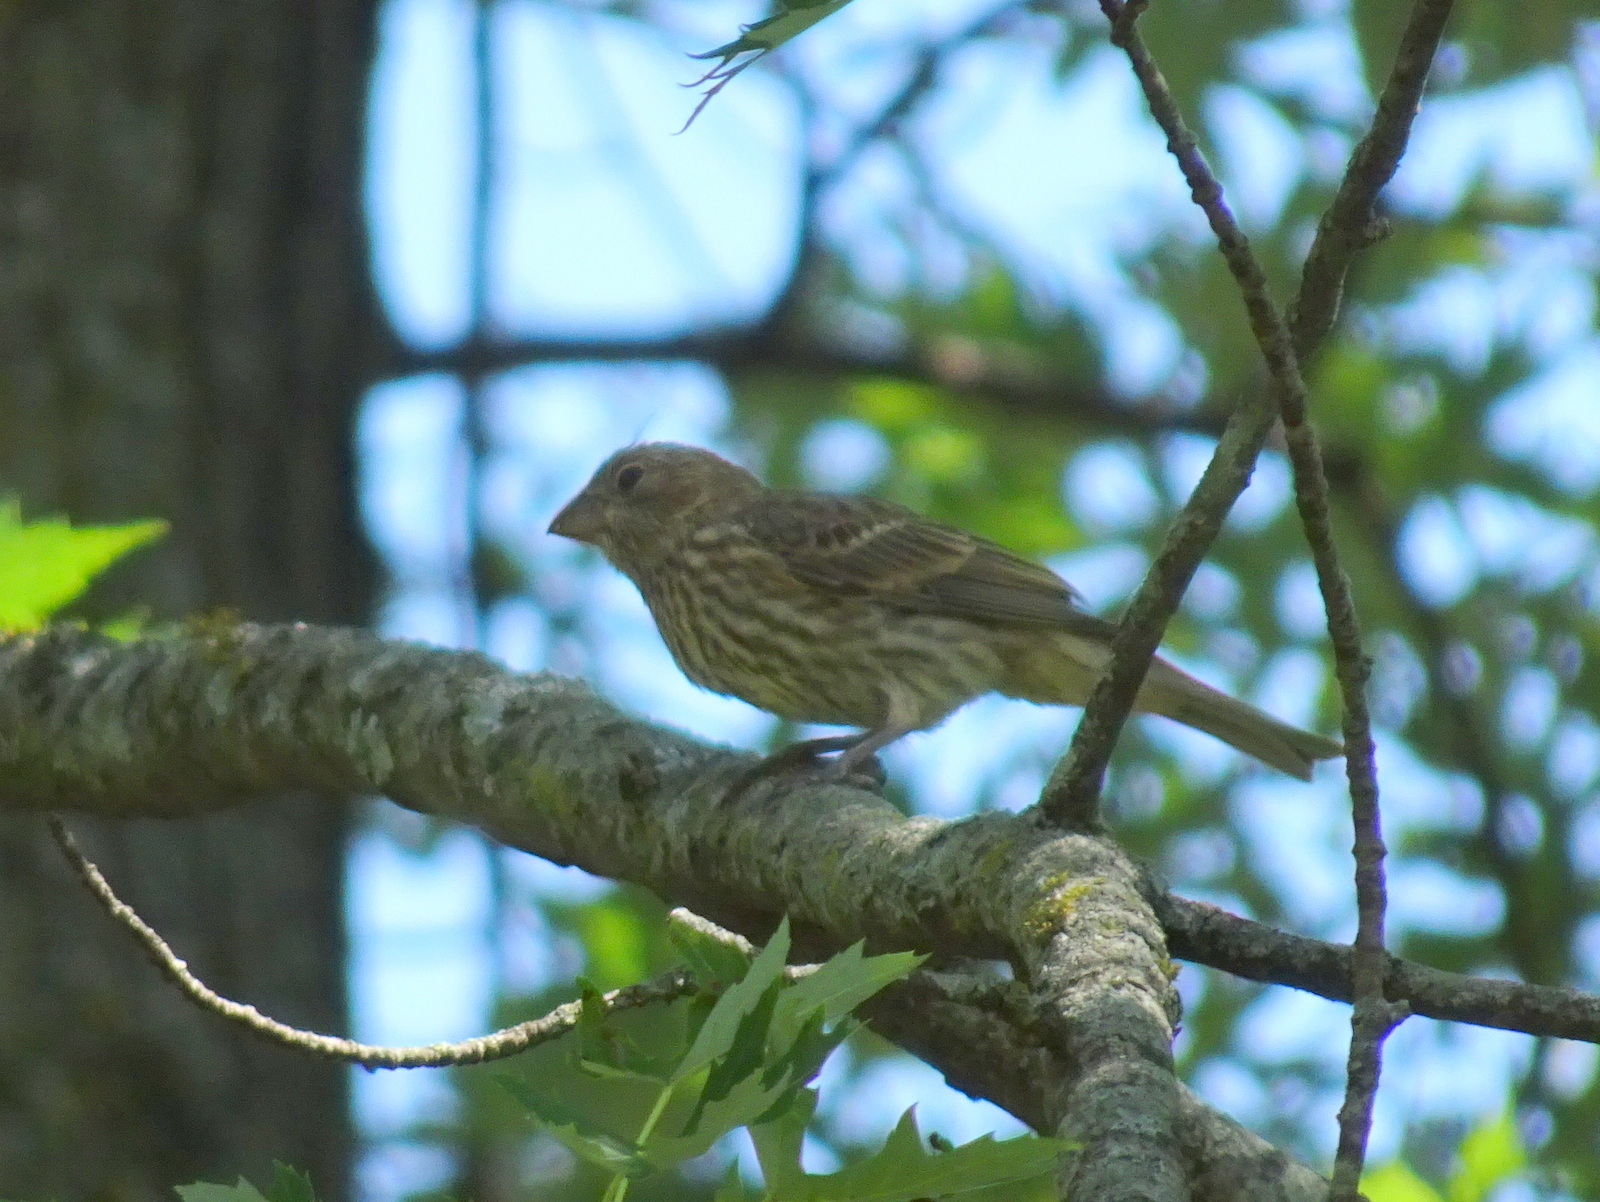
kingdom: Animalia
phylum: Chordata
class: Aves
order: Passeriformes
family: Fringillidae
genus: Haemorhous
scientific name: Haemorhous mexicanus
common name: House finch
